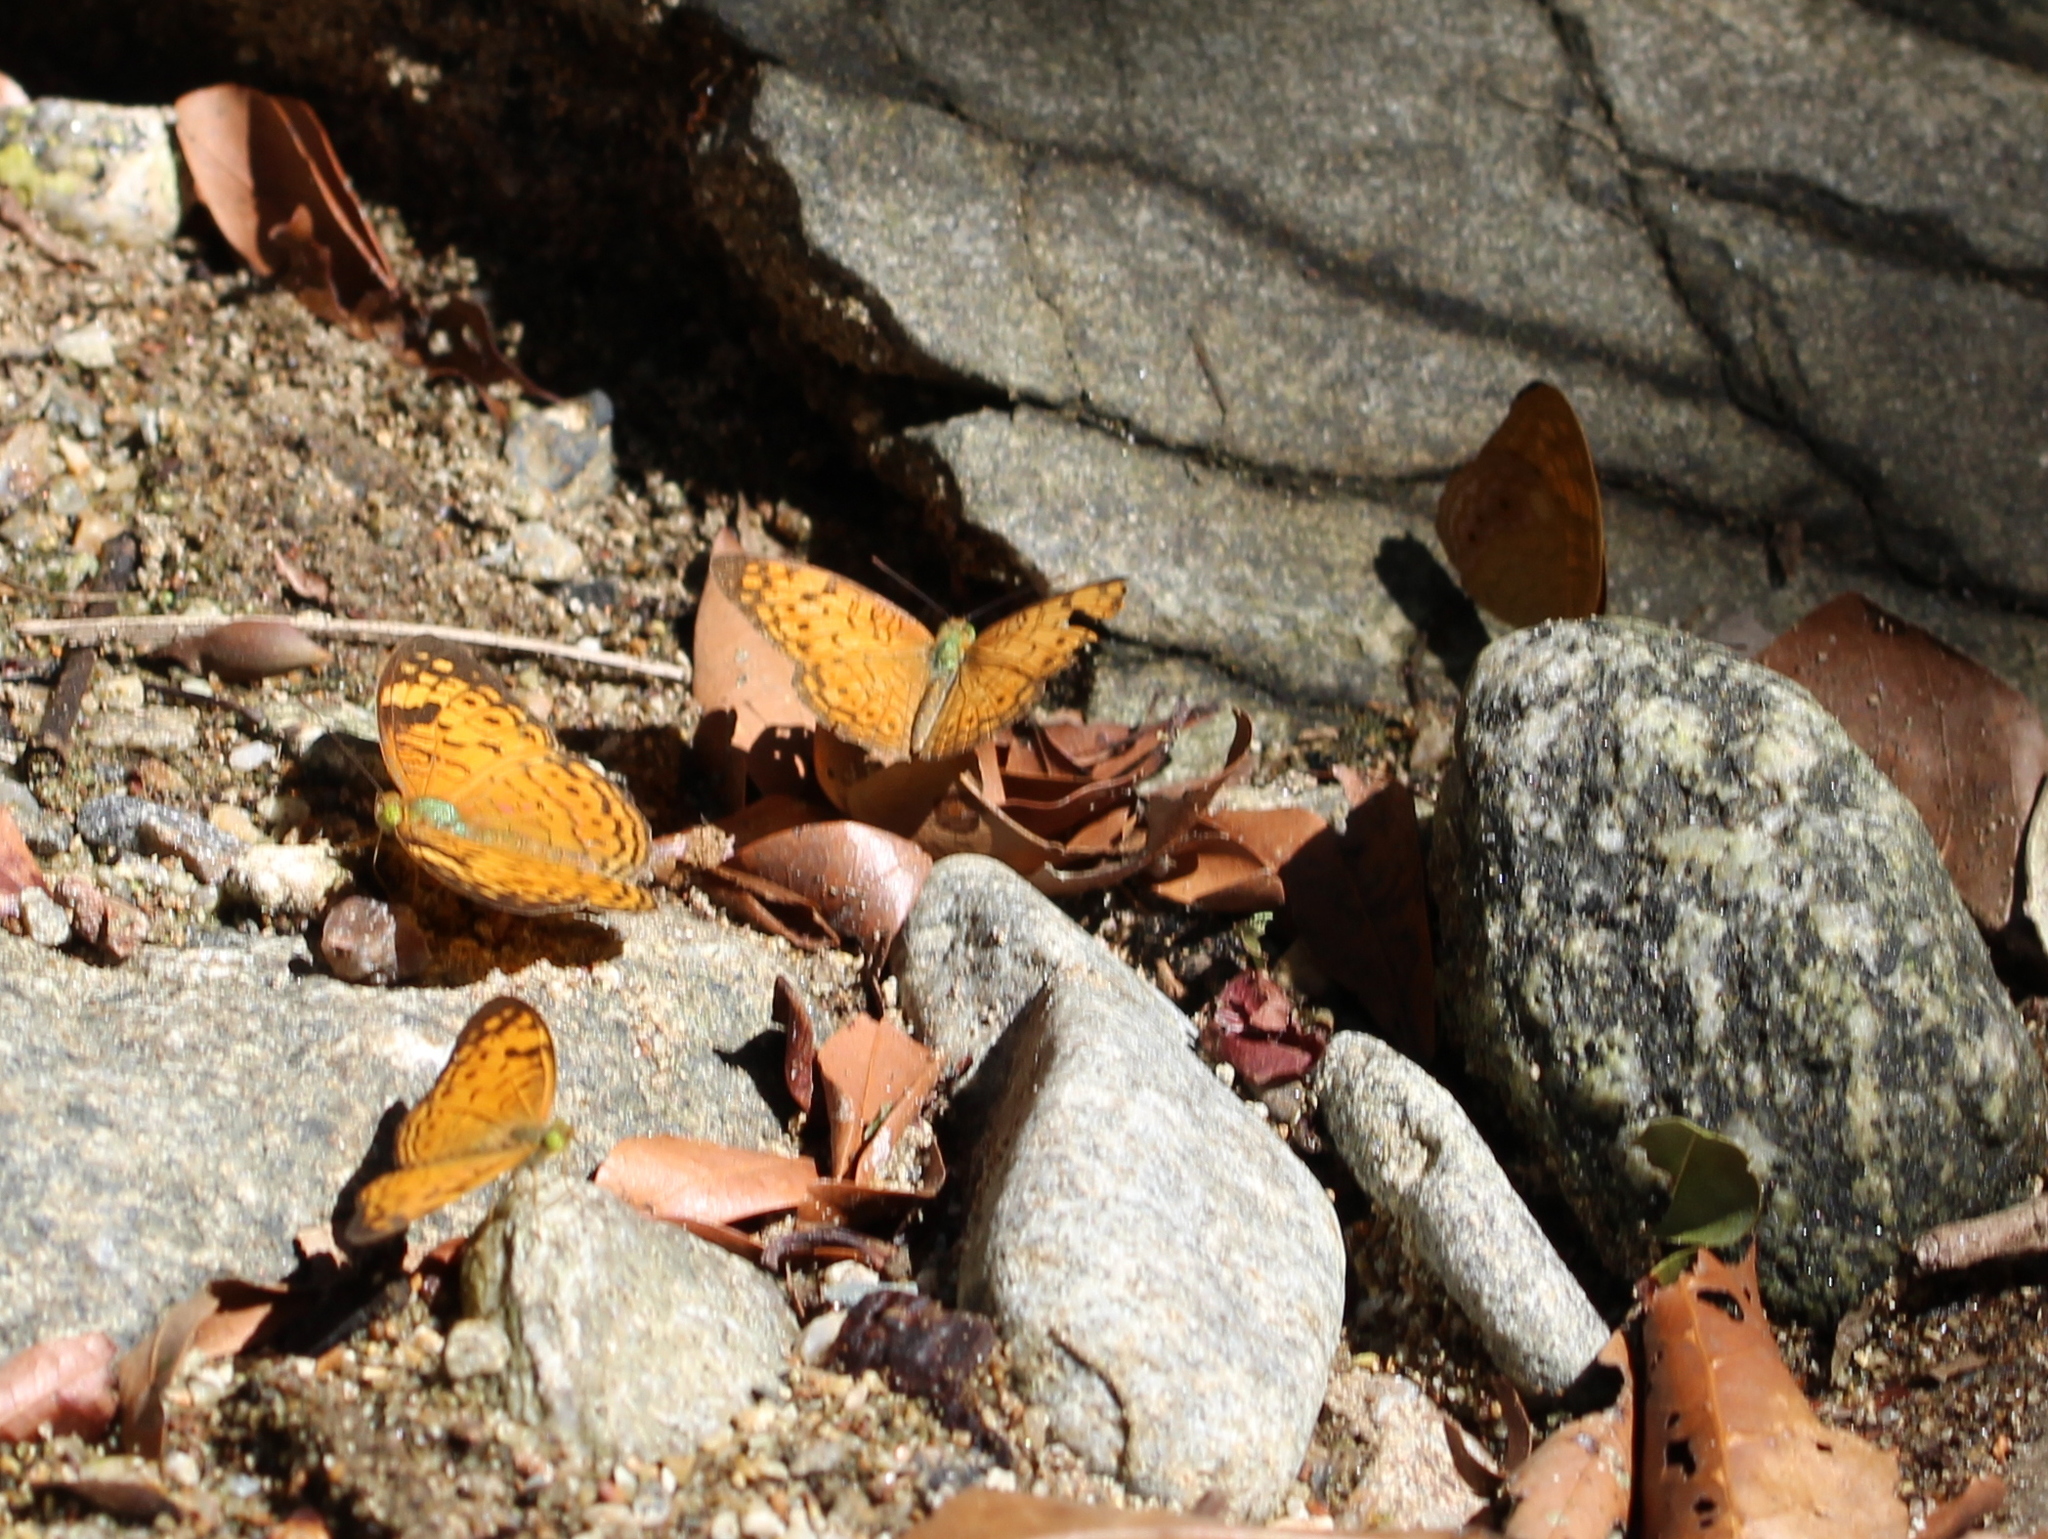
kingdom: Animalia
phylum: Arthropoda
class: Insecta
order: Lepidoptera
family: Nymphalidae
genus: Phalanta
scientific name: Phalanta alcippe
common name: Small leopard
